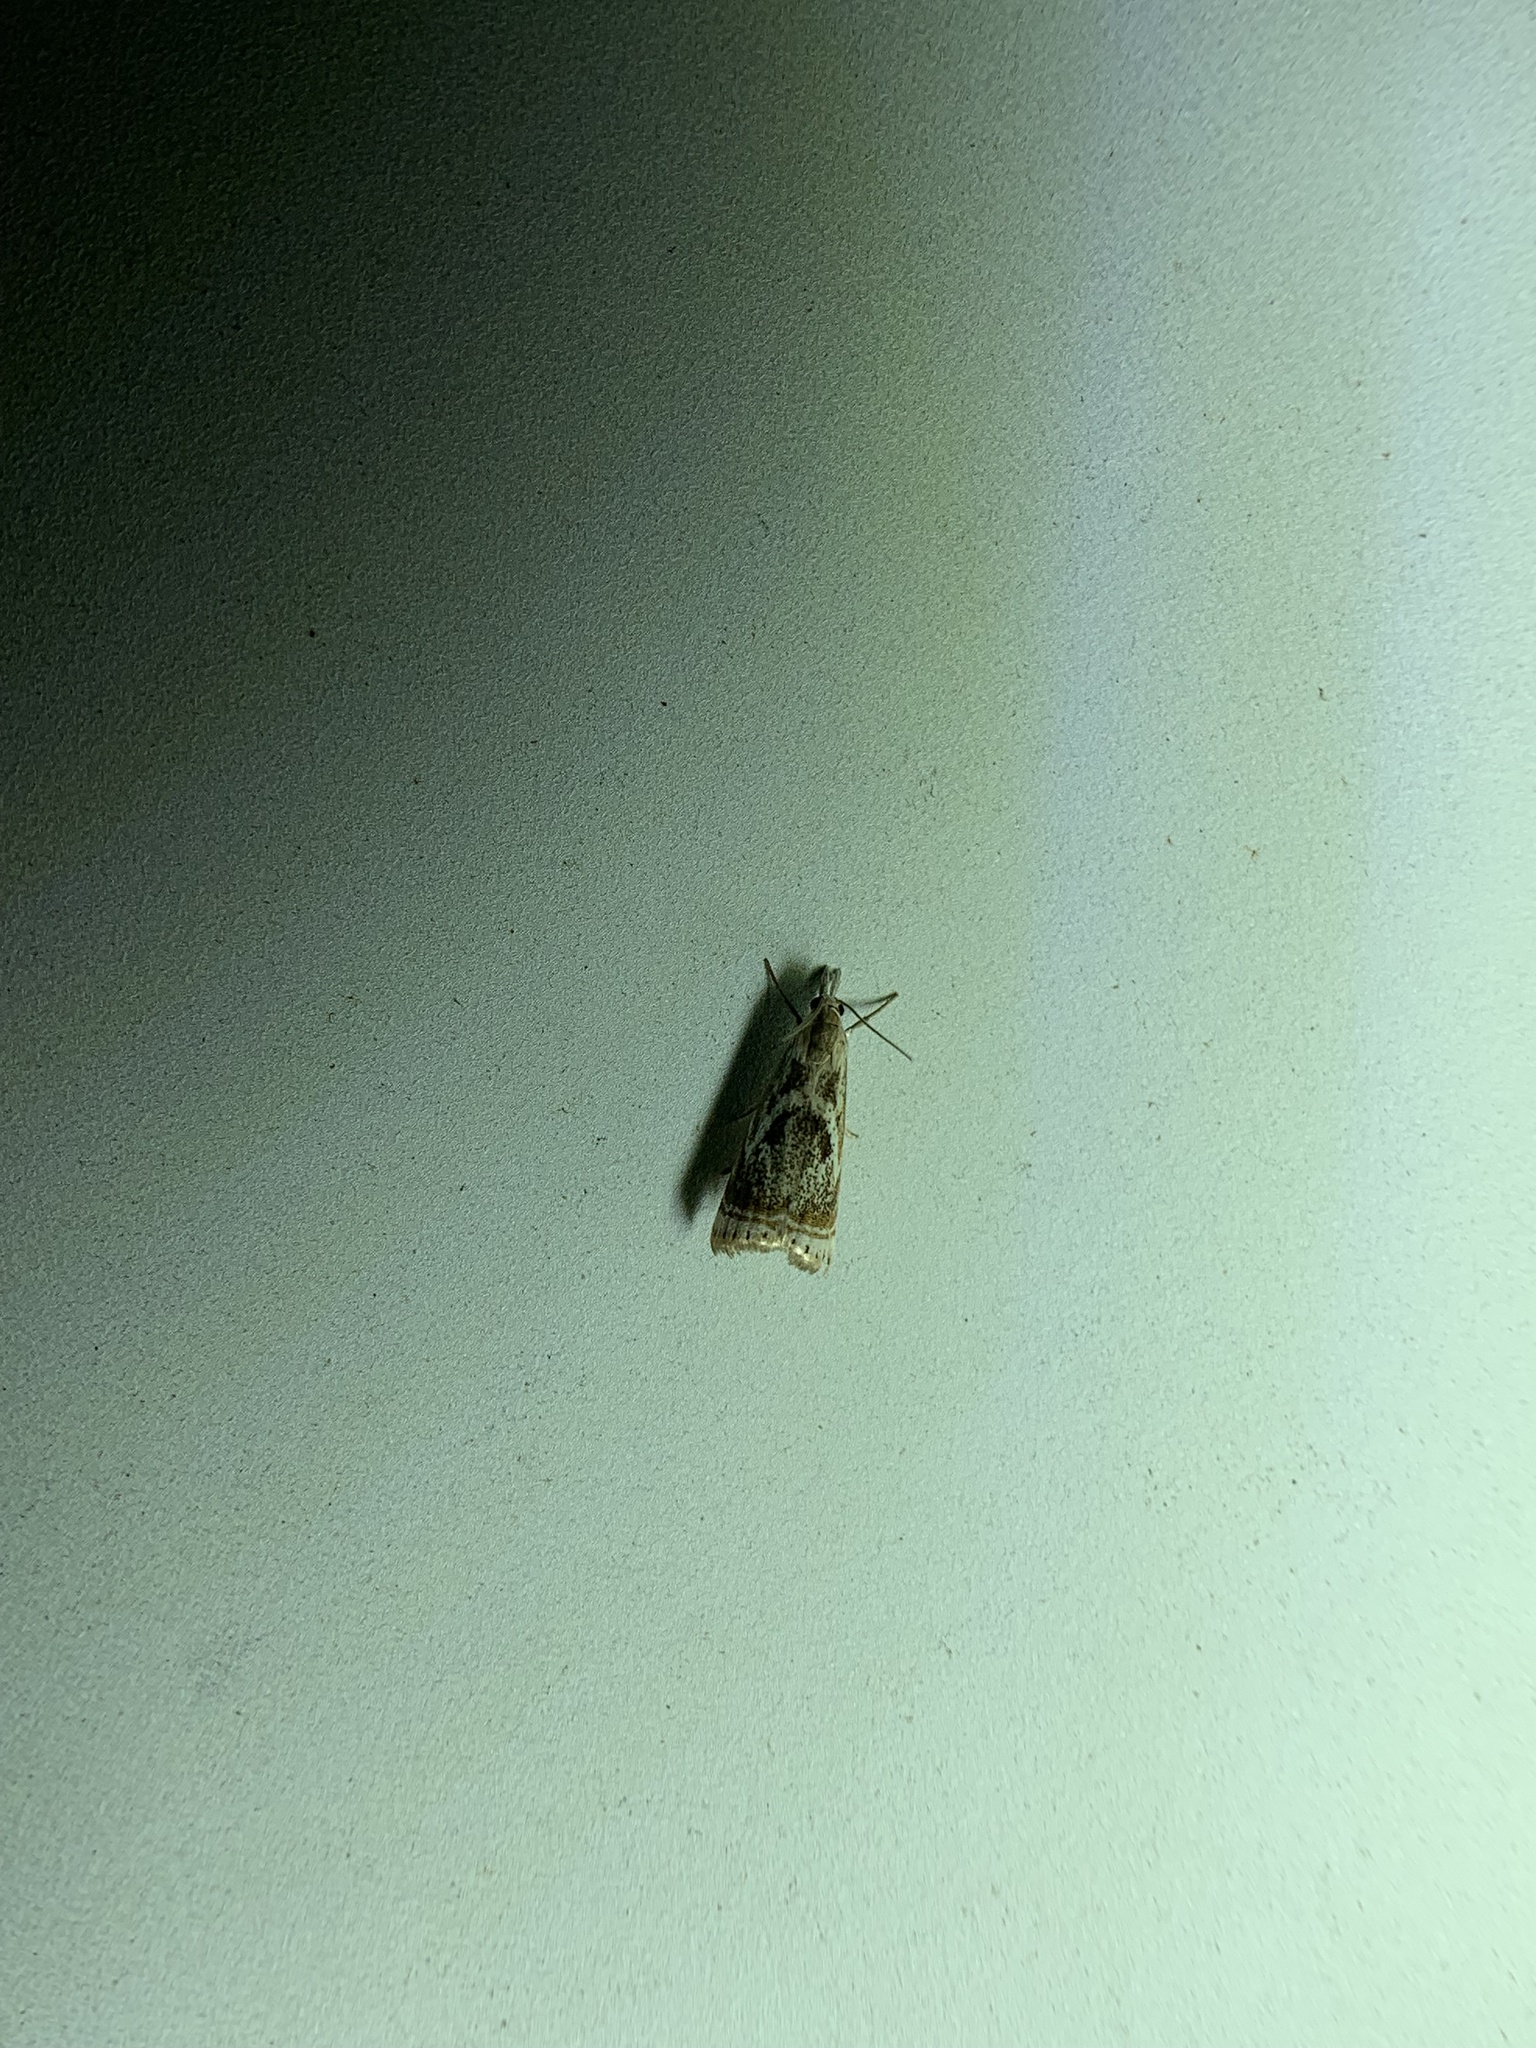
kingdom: Animalia
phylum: Arthropoda
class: Insecta
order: Lepidoptera
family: Crambidae
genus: Microcrambus
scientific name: Microcrambus elegans
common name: Elegant grass-veneer
